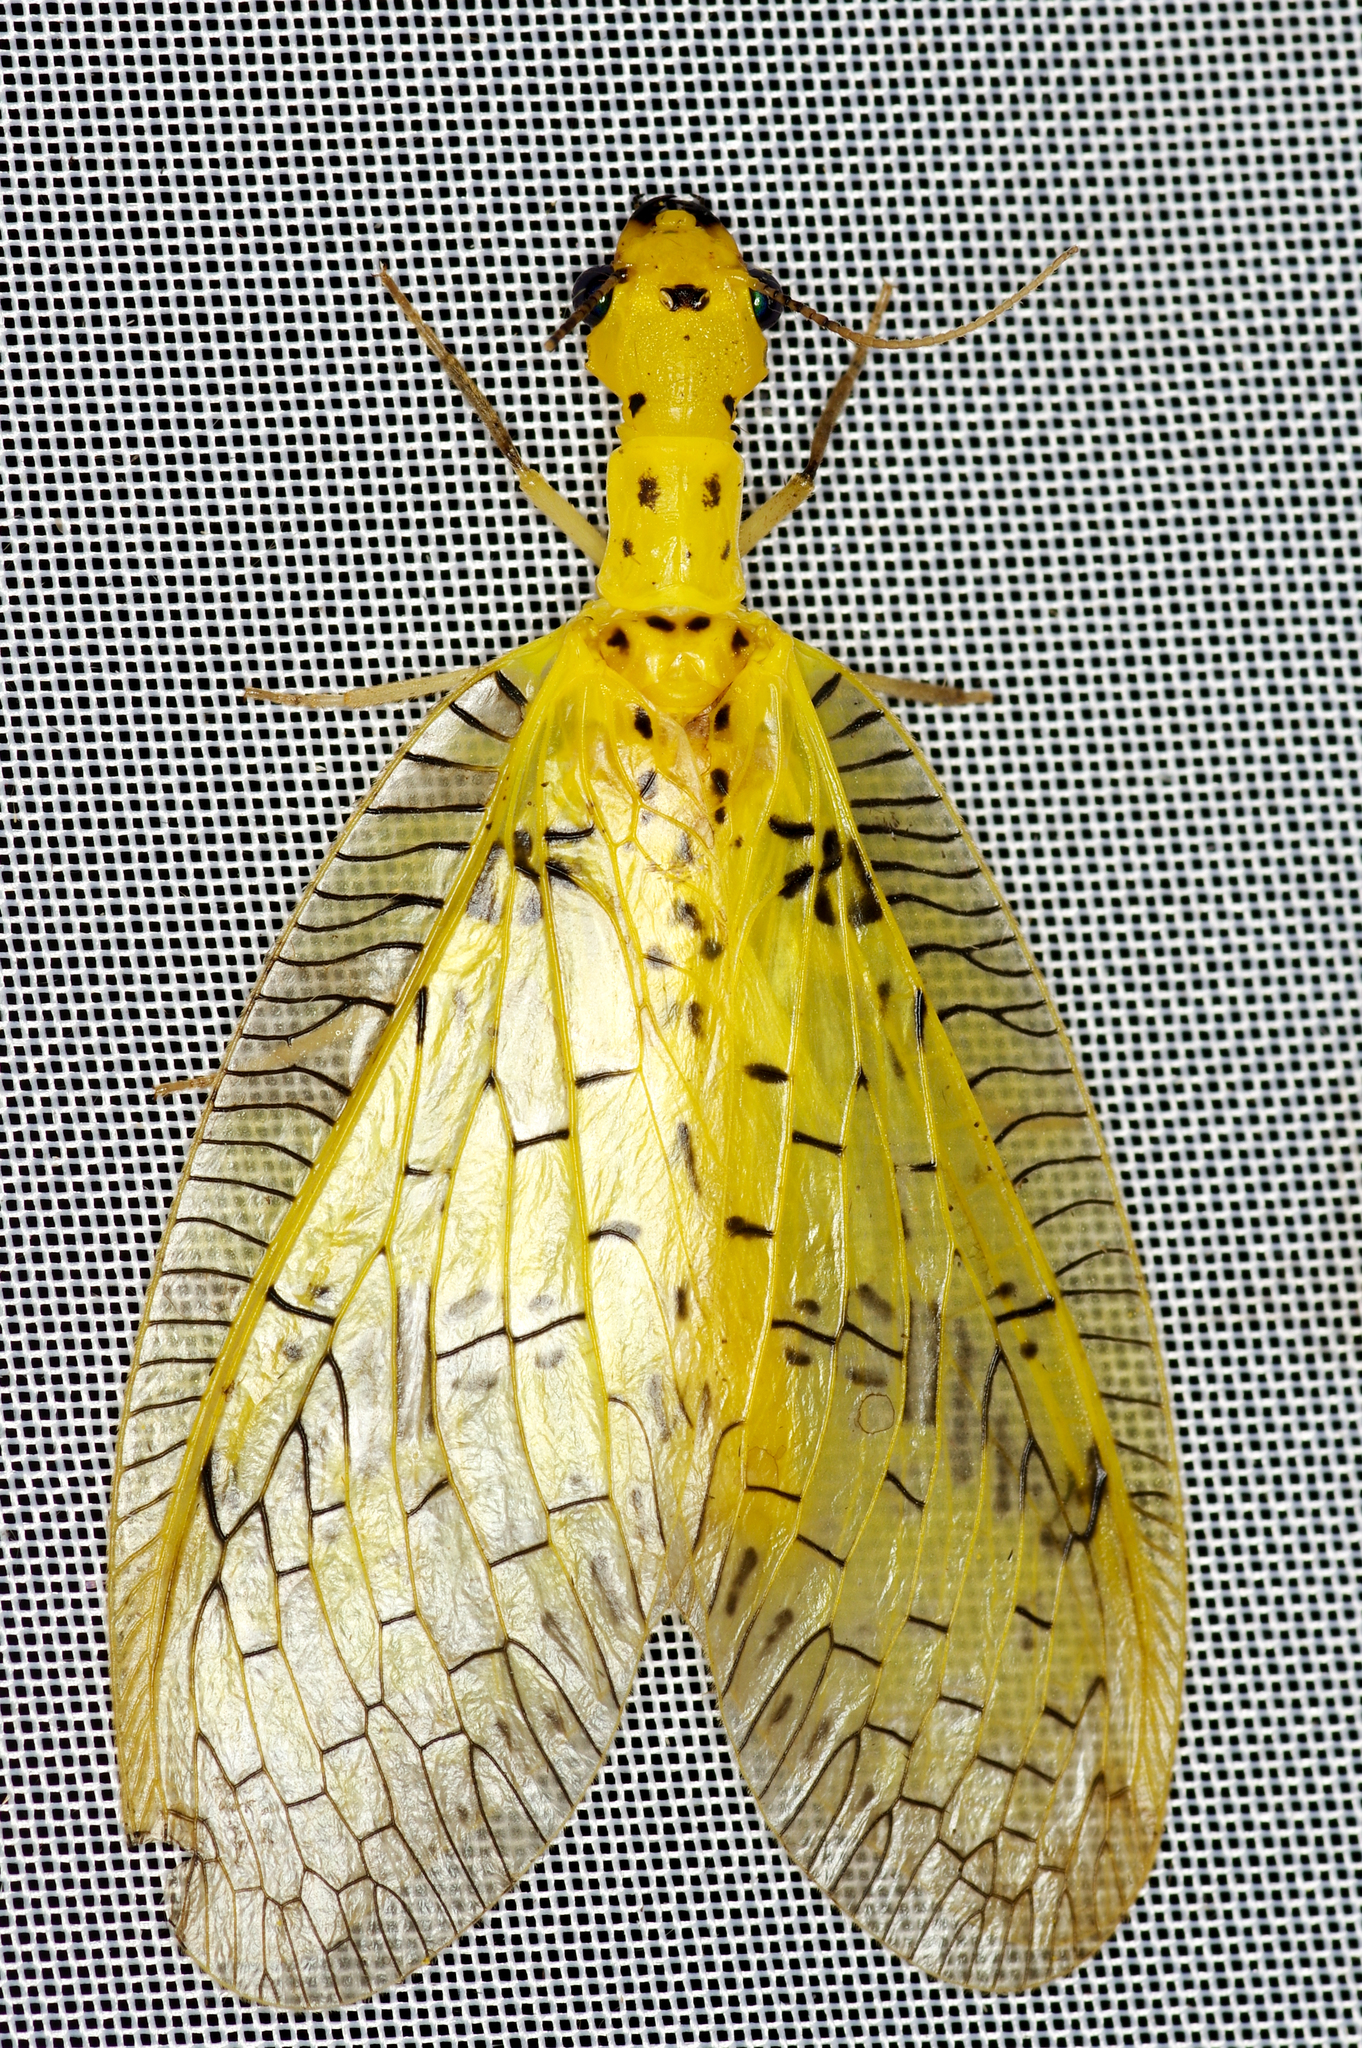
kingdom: Animalia
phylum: Arthropoda
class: Insecta
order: Megaloptera
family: Corydalidae
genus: Chloronia
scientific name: Chloronia hieroglyphica
